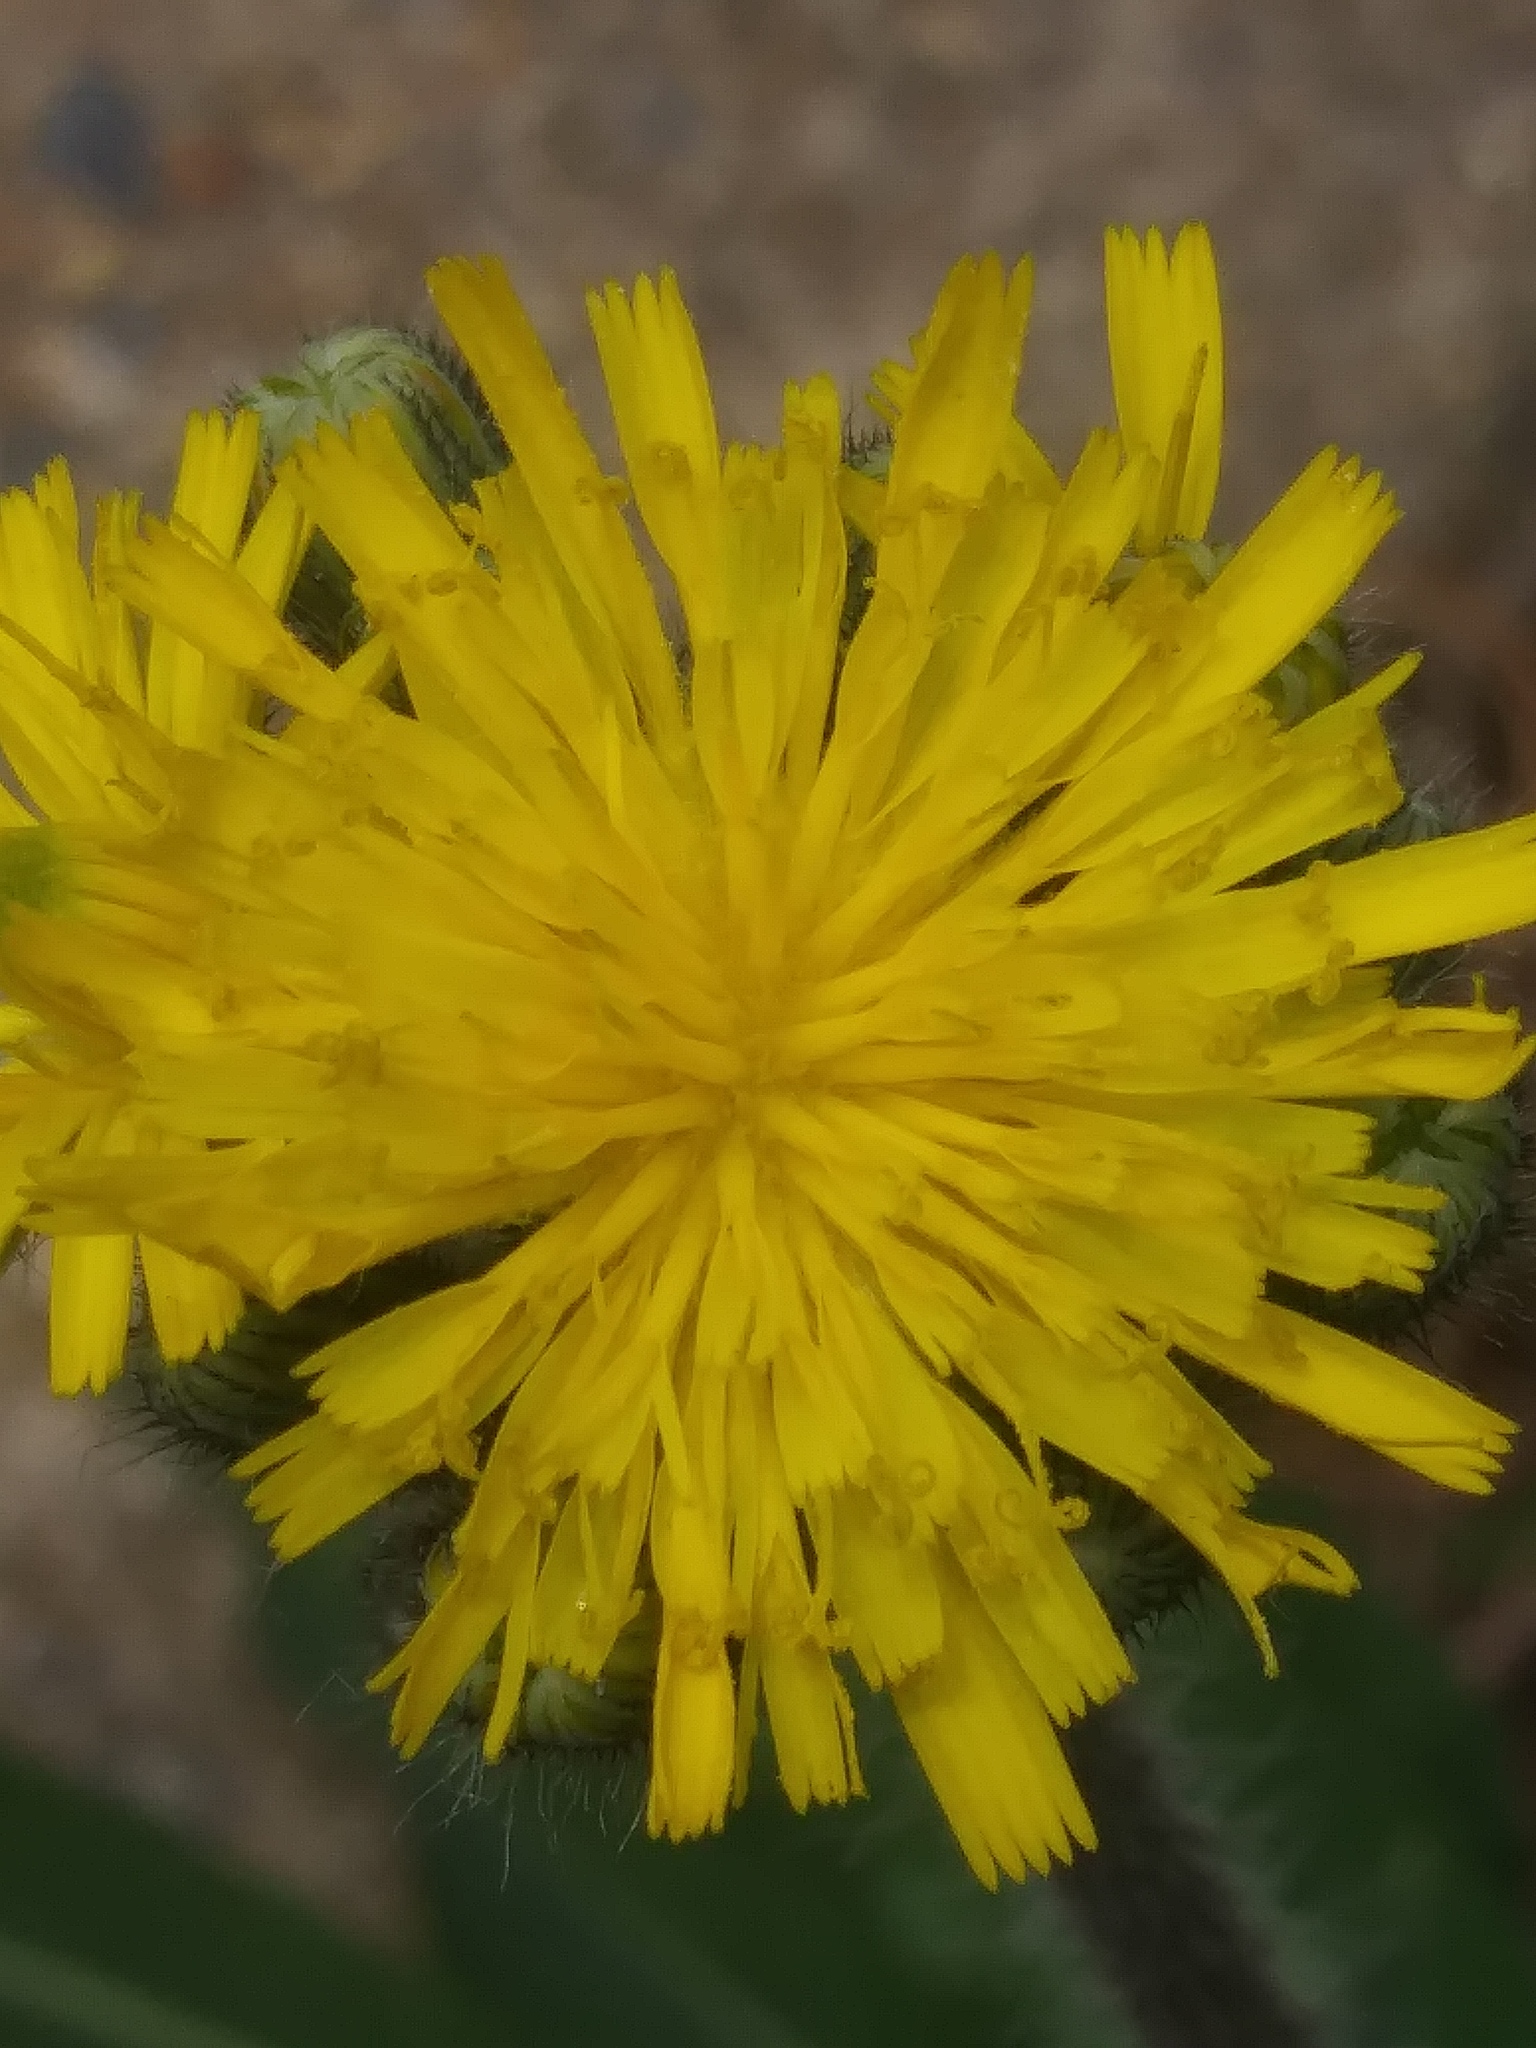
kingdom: Plantae
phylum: Tracheophyta
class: Magnoliopsida
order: Asterales
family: Asteraceae
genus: Pilosella
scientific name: Pilosella caespitosa
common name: Yellow fox-and-cubs
